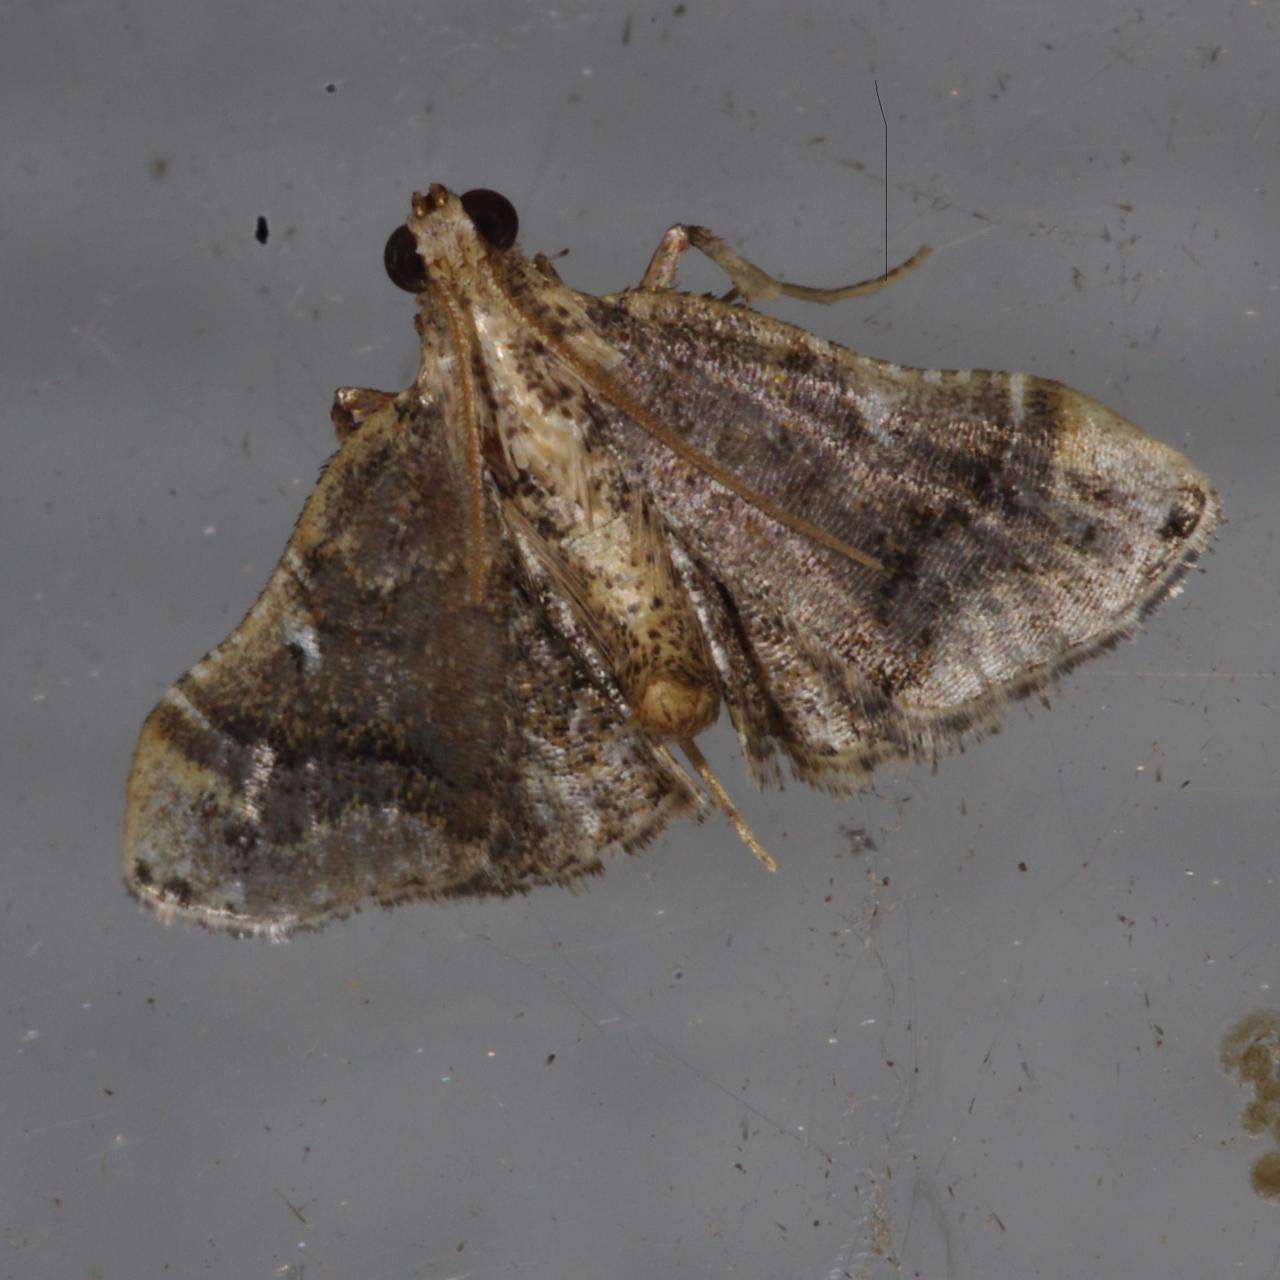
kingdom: Animalia
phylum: Arthropoda
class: Insecta
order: Lepidoptera
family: Pyralidae
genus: Scenedra
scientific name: Scenedra decoratalis
